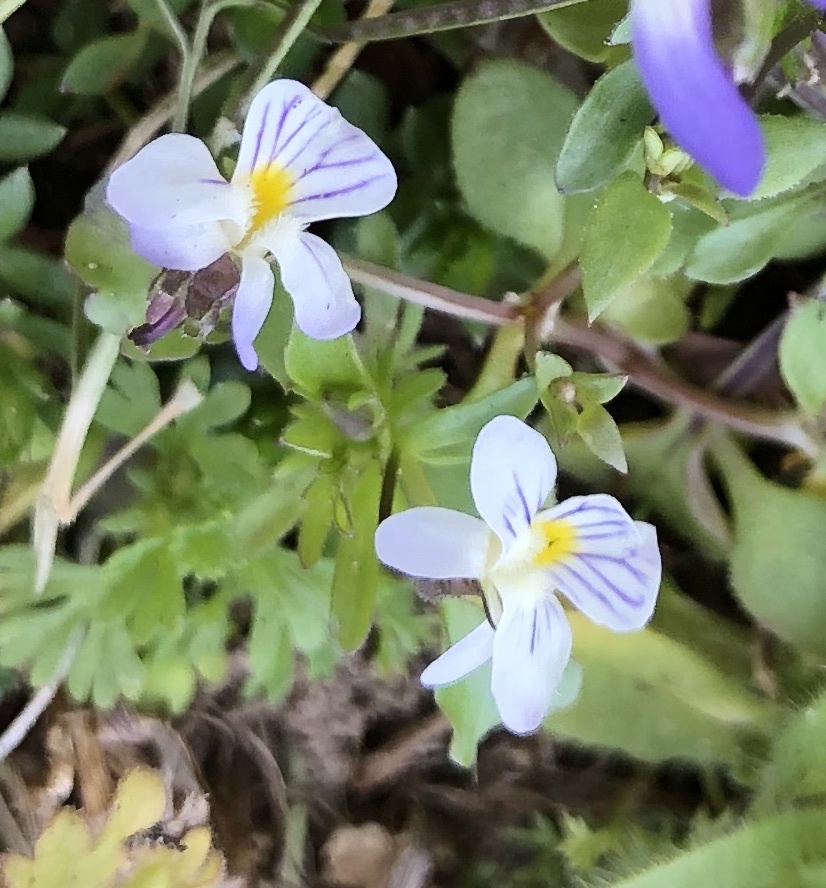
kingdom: Plantae
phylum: Tracheophyta
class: Magnoliopsida
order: Malpighiales
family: Violaceae
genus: Viola
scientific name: Viola rafinesquei
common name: American field pansy
